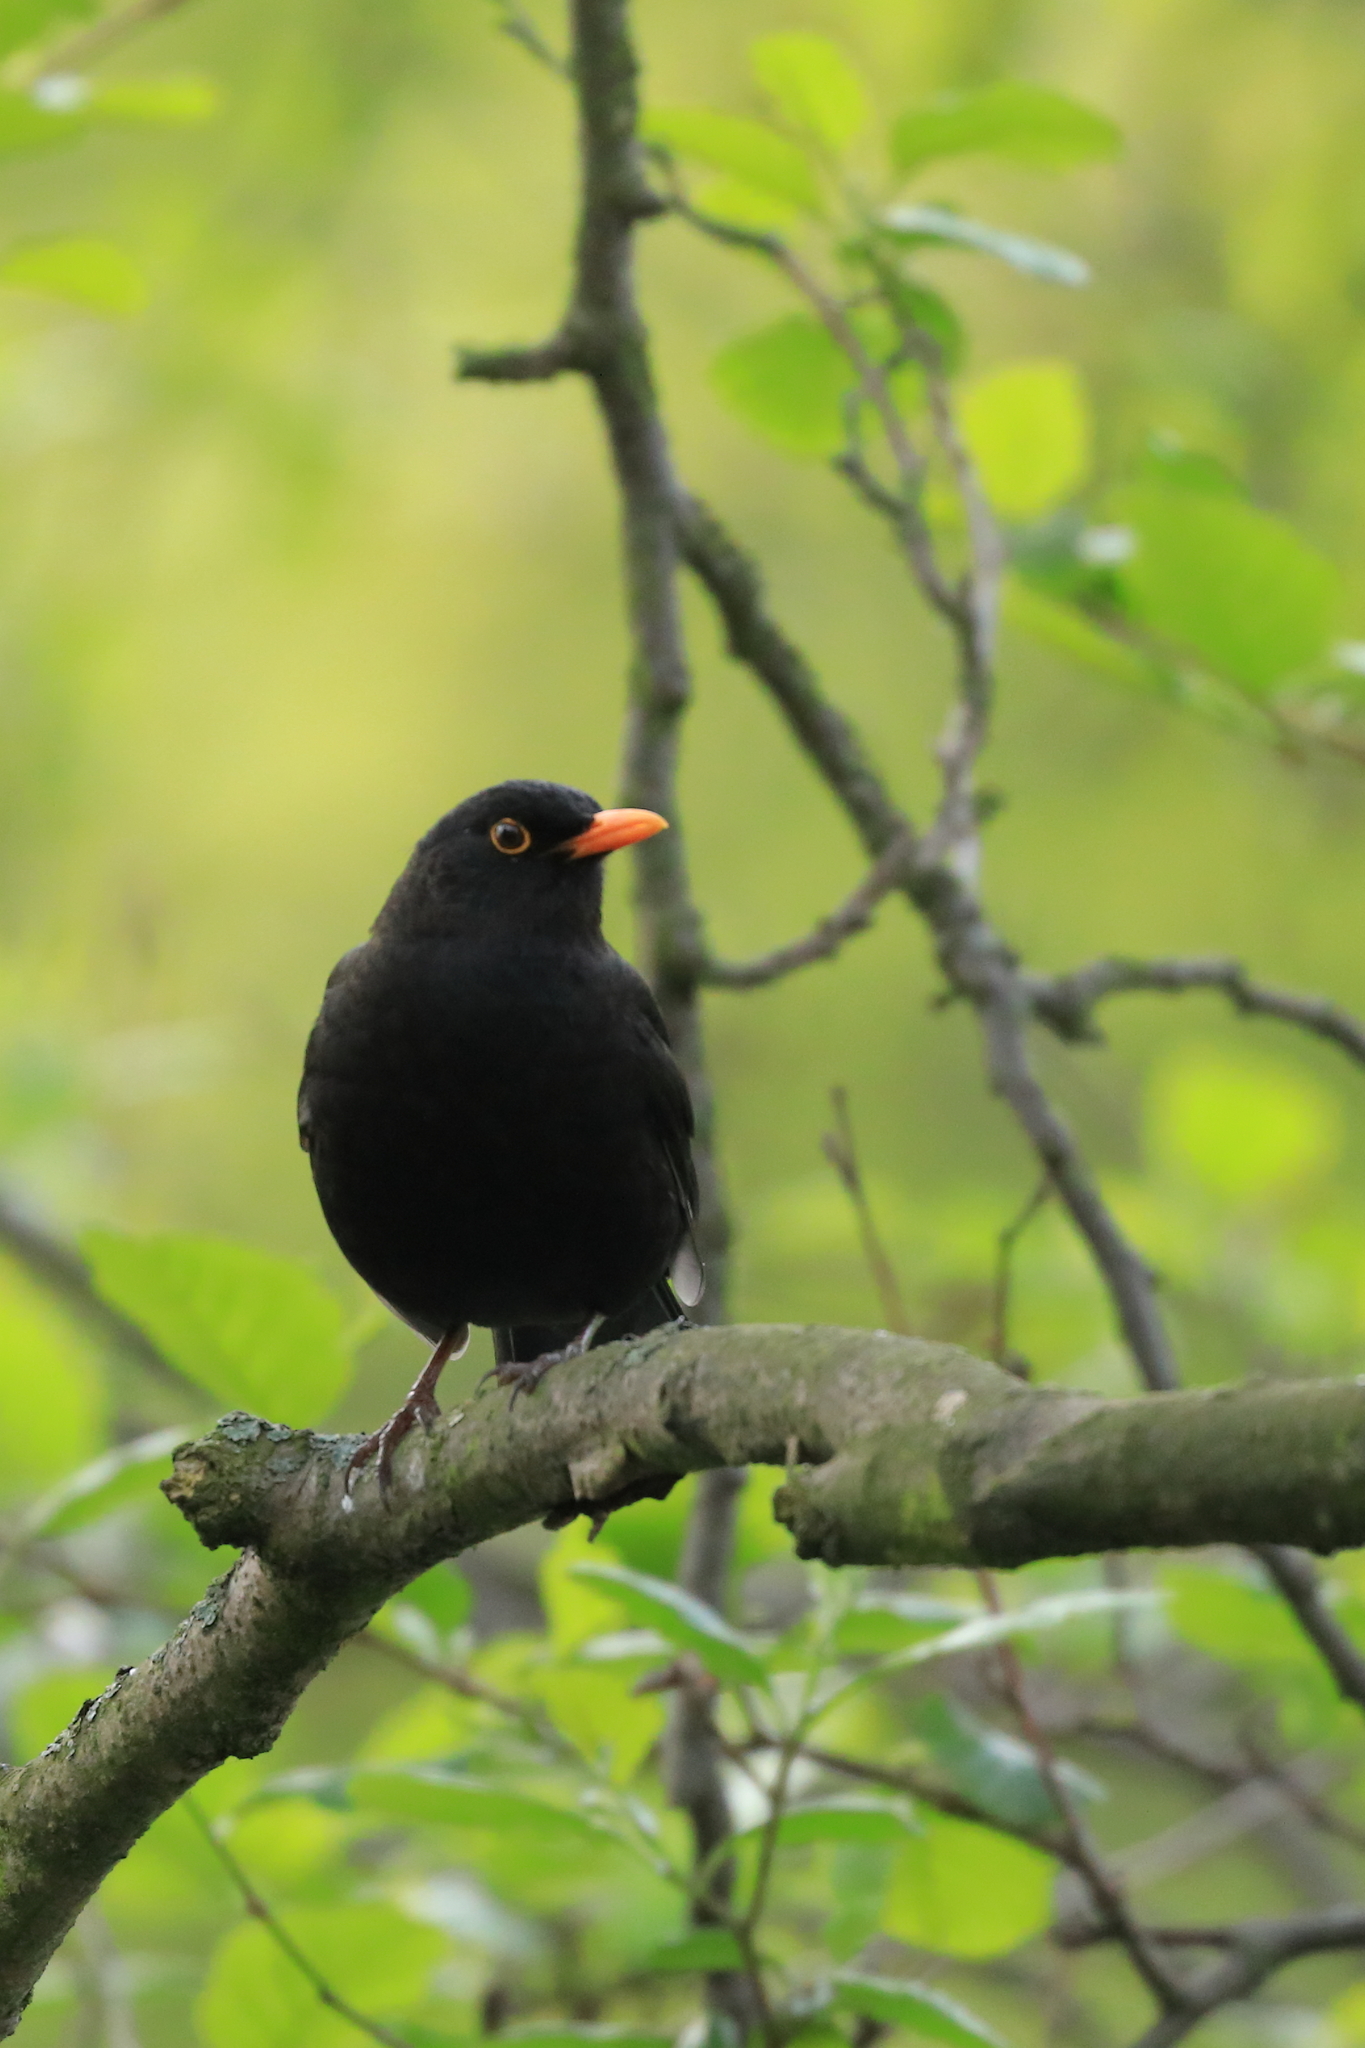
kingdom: Animalia
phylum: Chordata
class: Aves
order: Passeriformes
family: Turdidae
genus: Turdus
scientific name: Turdus merula
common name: Common blackbird
